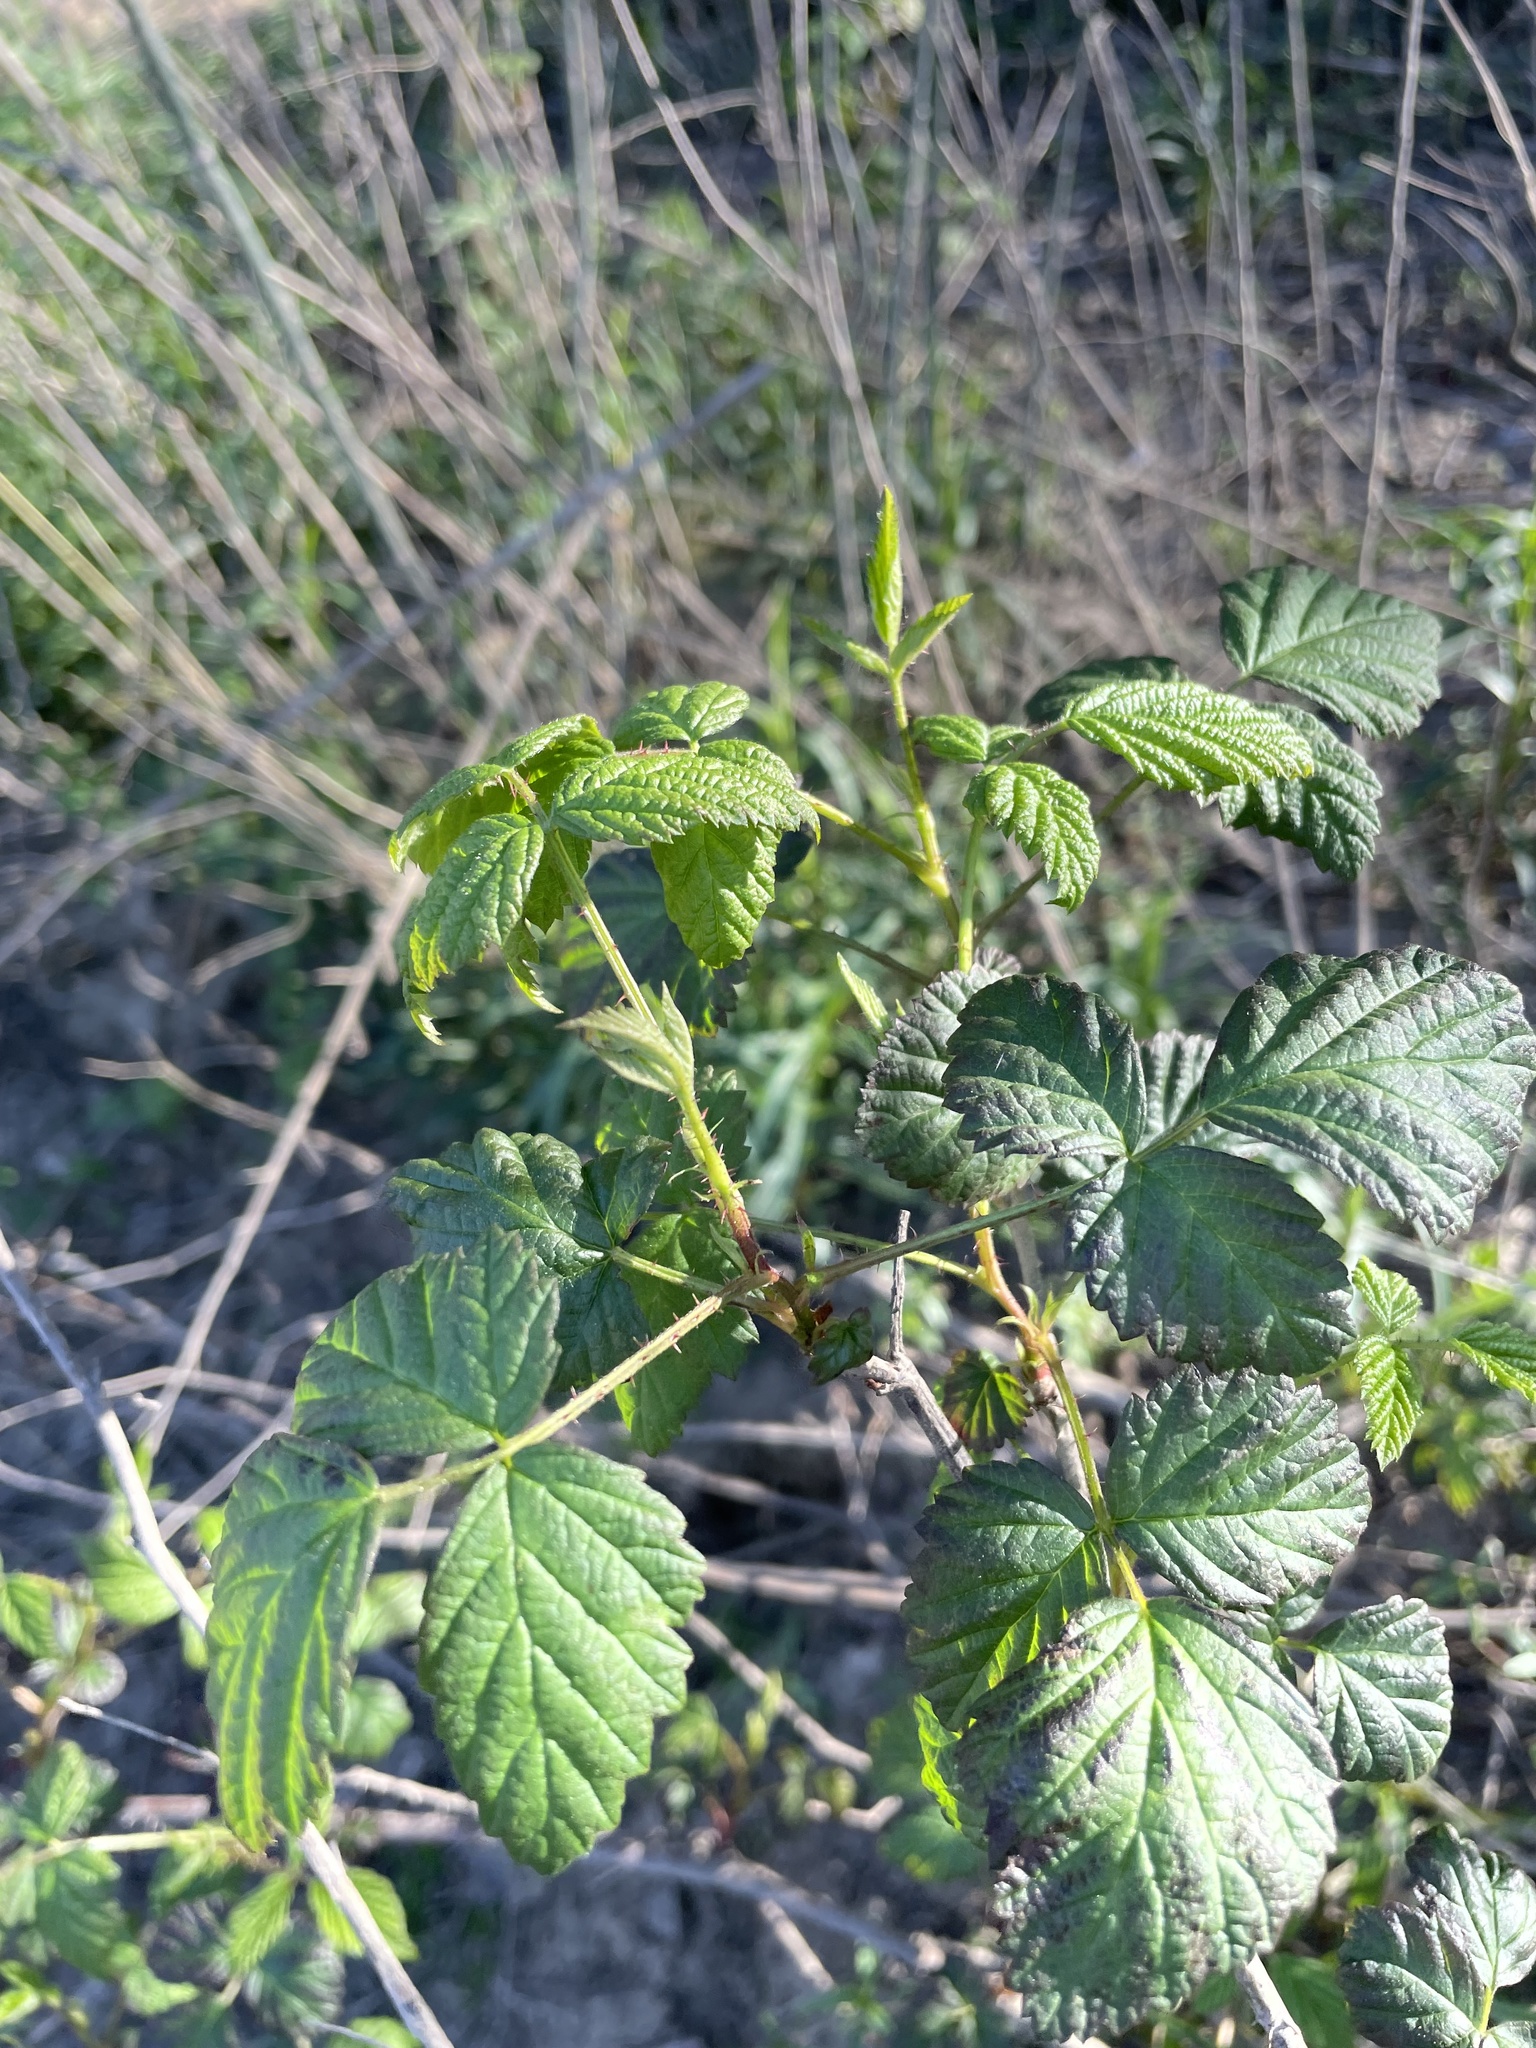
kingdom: Plantae
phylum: Tracheophyta
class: Magnoliopsida
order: Rosales
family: Rosaceae
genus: Rubus
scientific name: Rubus ursinus
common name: Pacific blackberry
